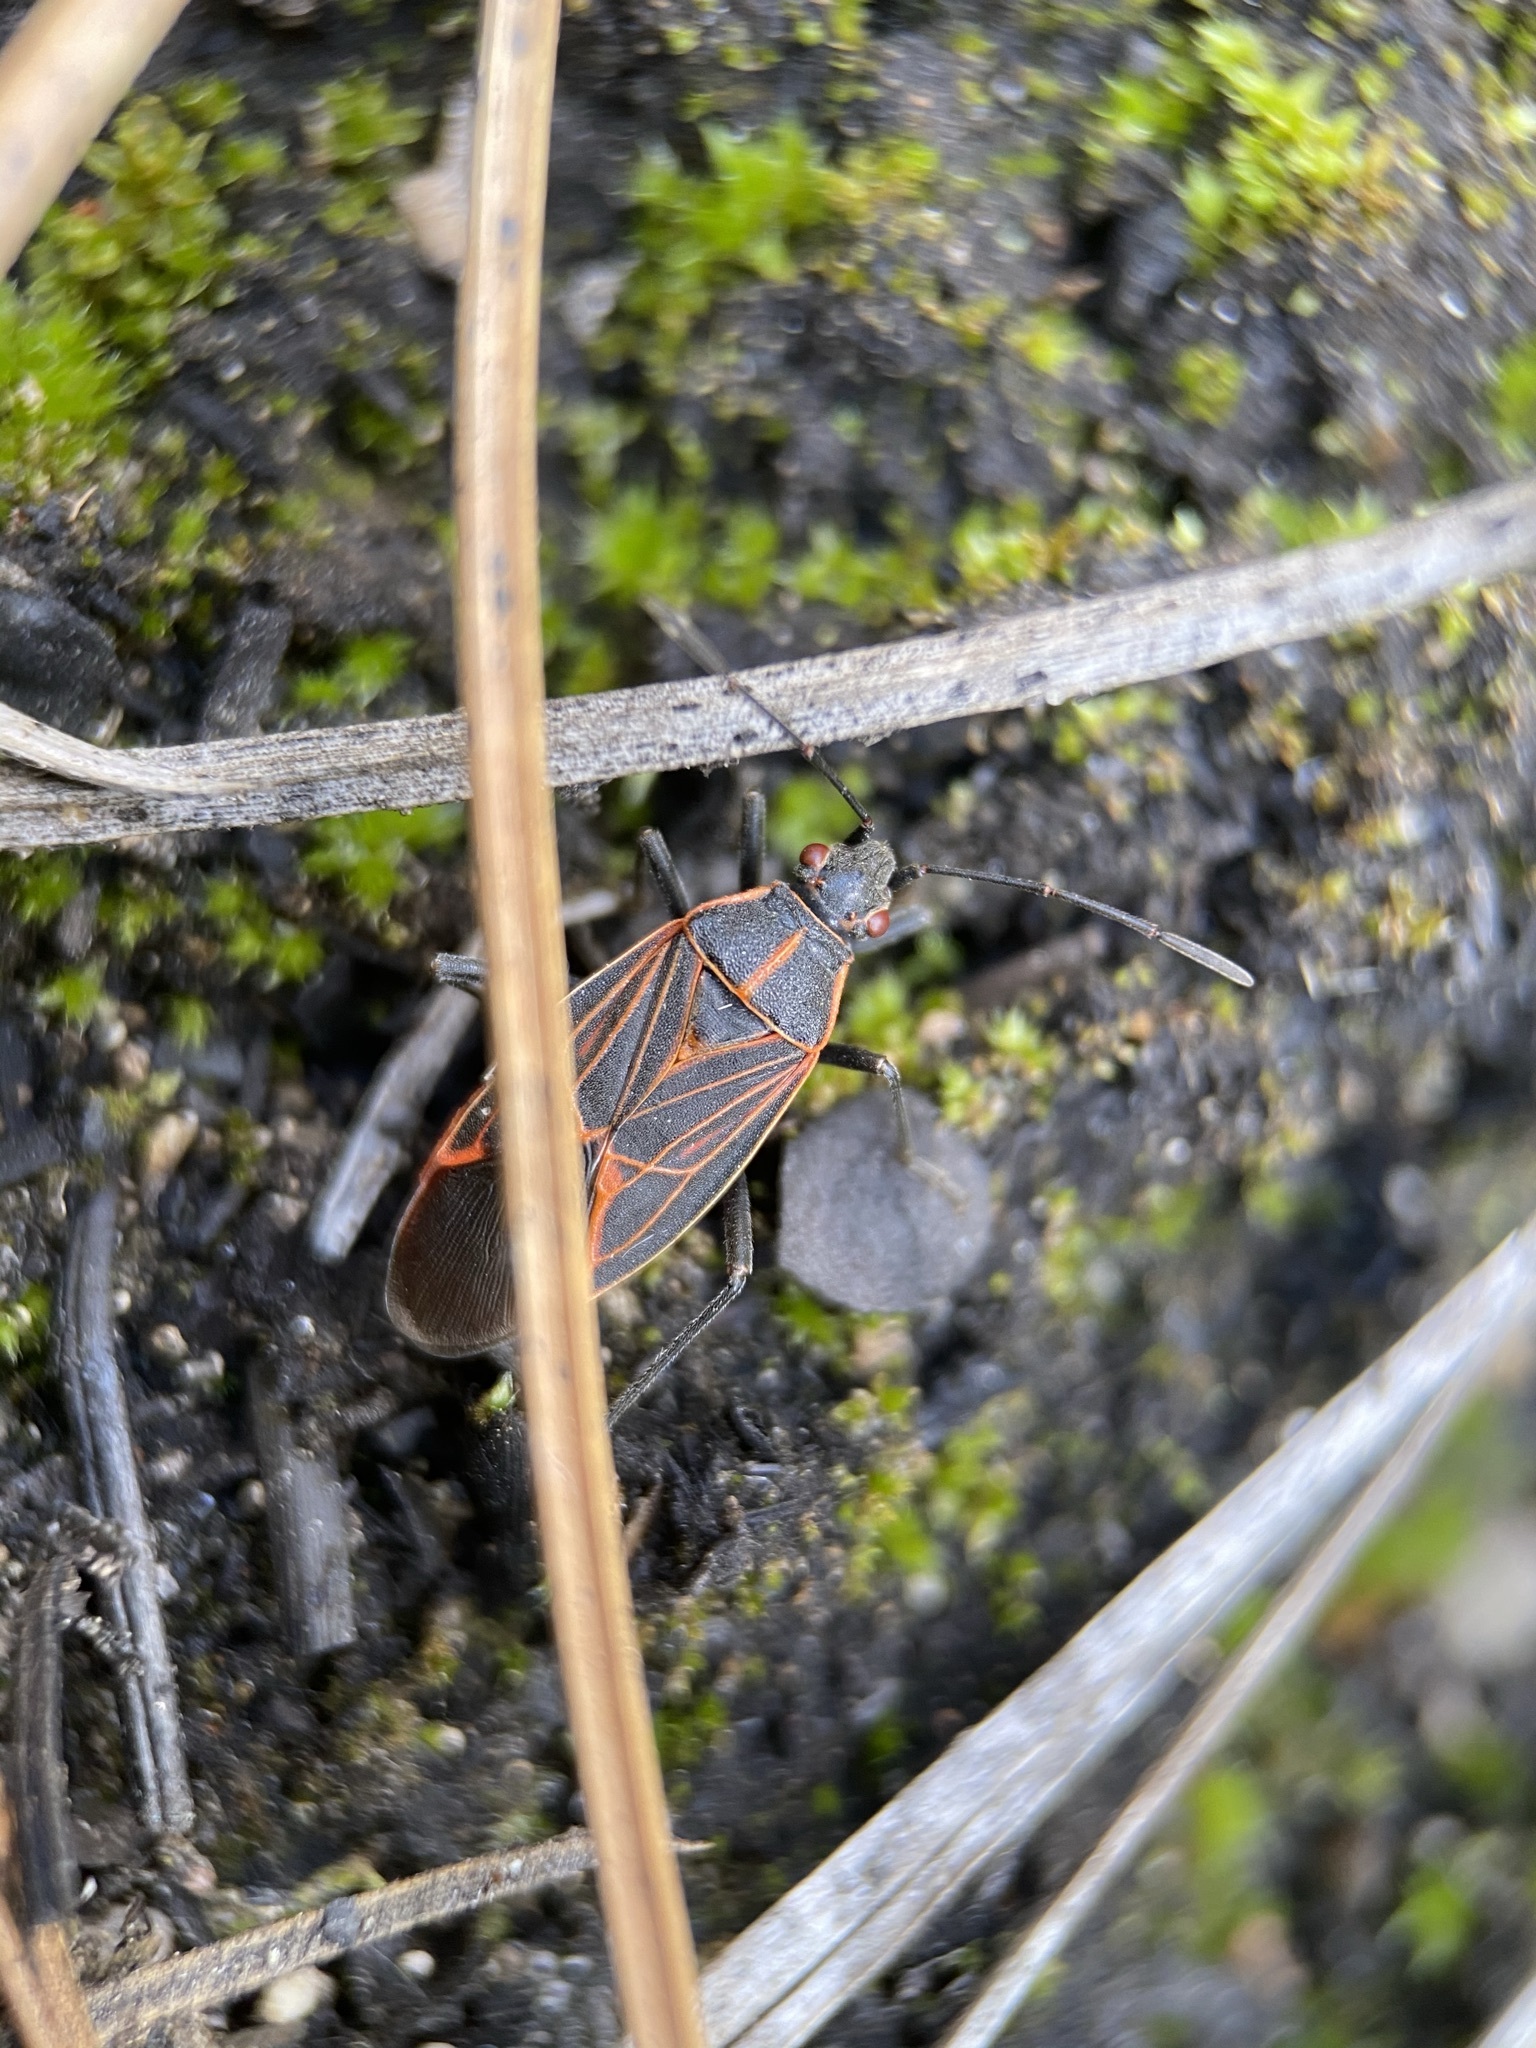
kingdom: Animalia
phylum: Arthropoda
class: Insecta
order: Hemiptera
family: Rhopalidae
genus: Boisea
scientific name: Boisea rubrolineata
